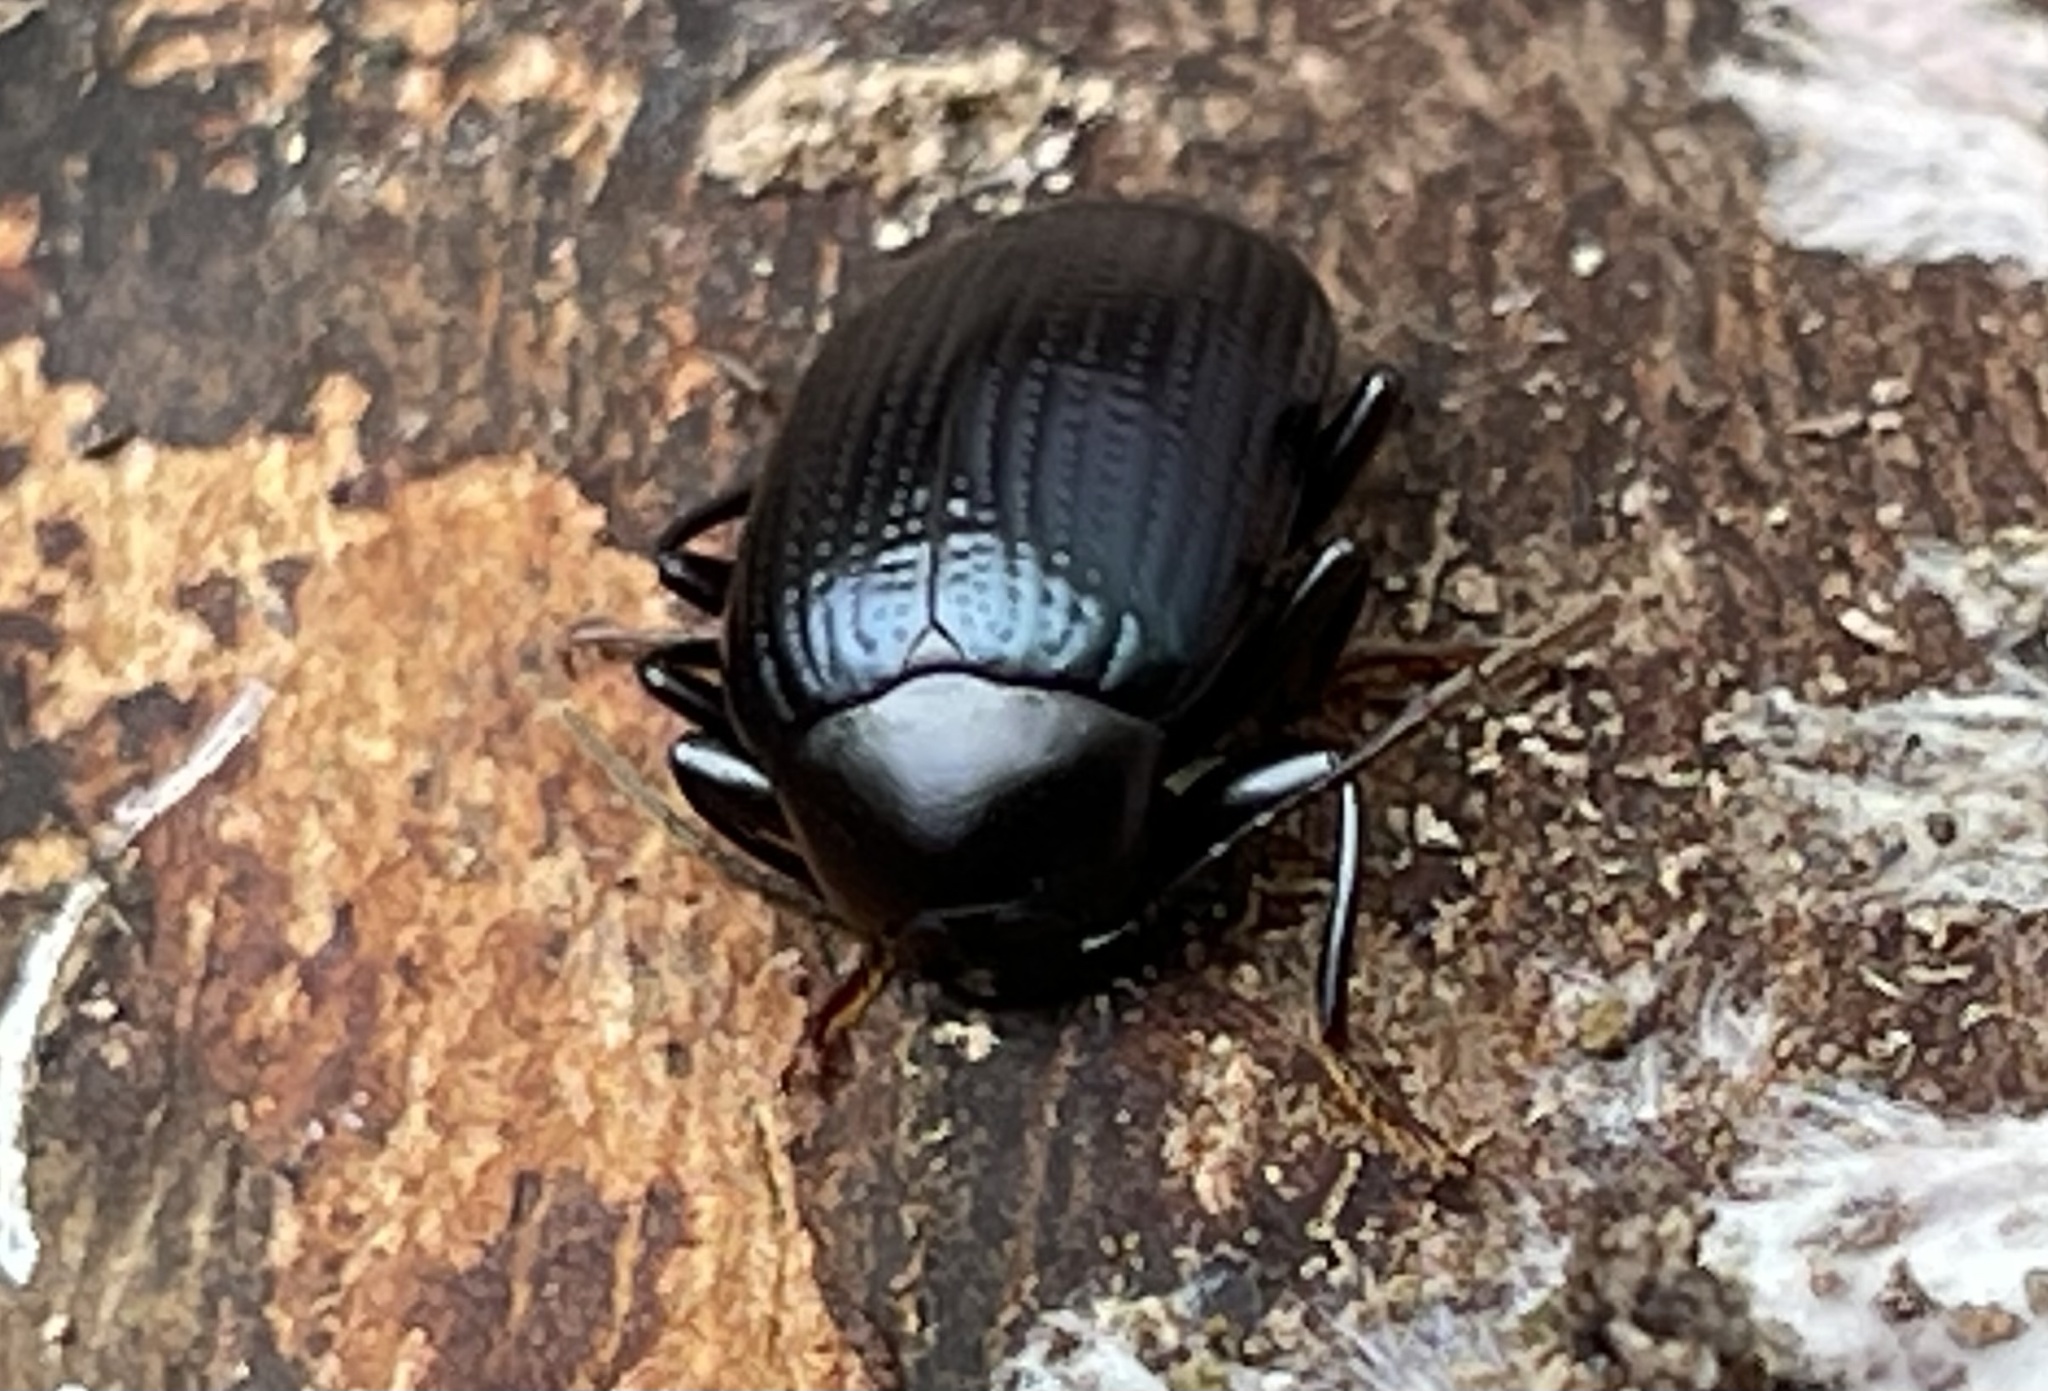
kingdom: Animalia
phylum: Arthropoda
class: Insecta
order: Coleoptera
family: Tenebrionidae
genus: Amarygmus
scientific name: Amarygmus
